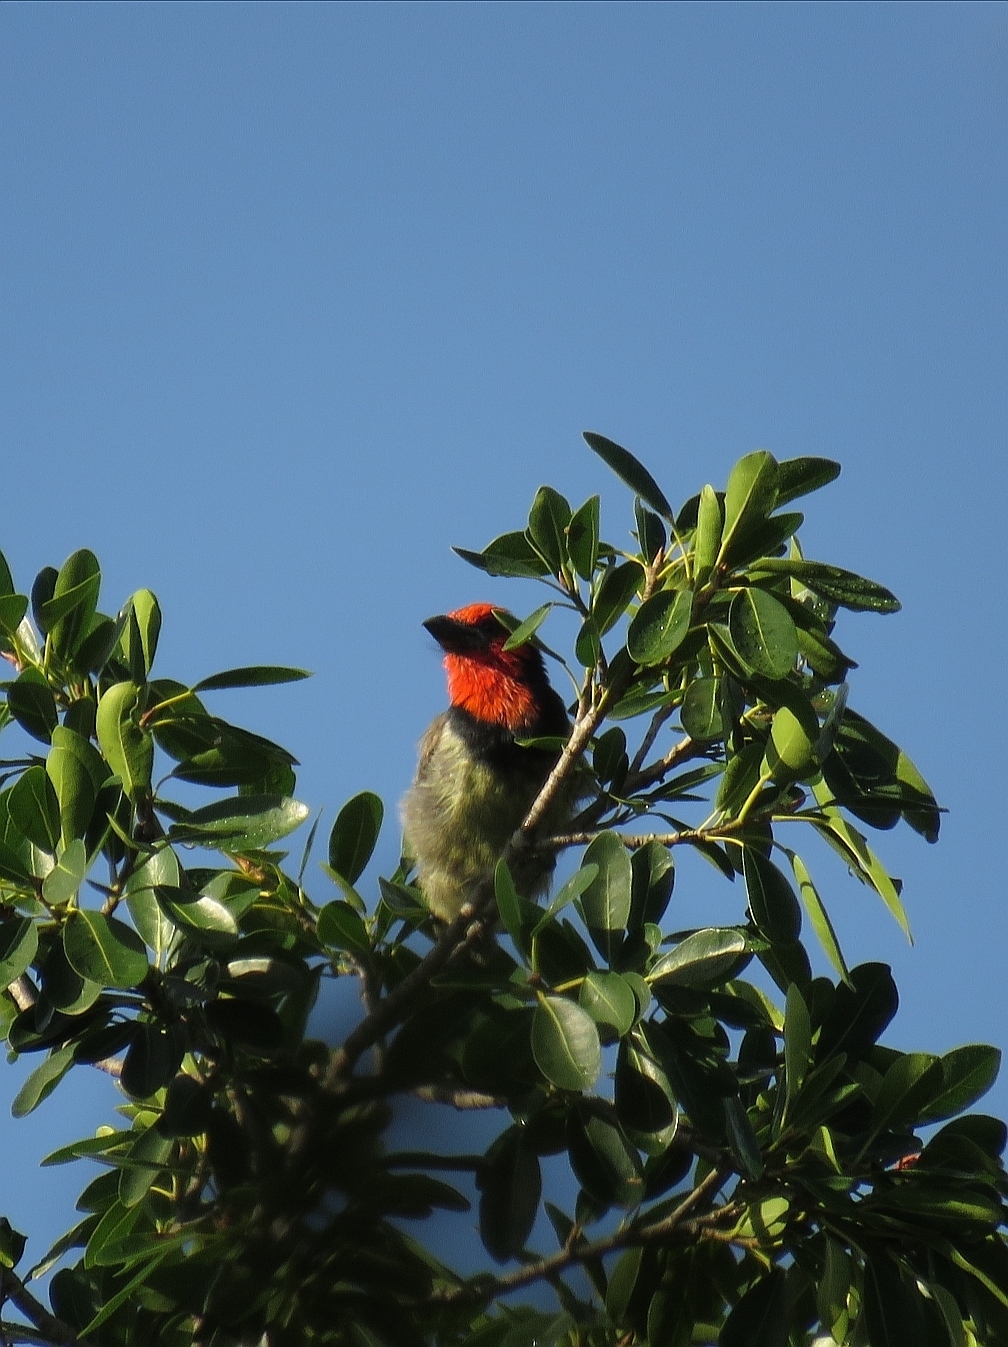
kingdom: Animalia
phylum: Chordata
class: Aves
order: Piciformes
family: Lybiidae
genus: Lybius
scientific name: Lybius torquatus
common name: Black-collared barbet
